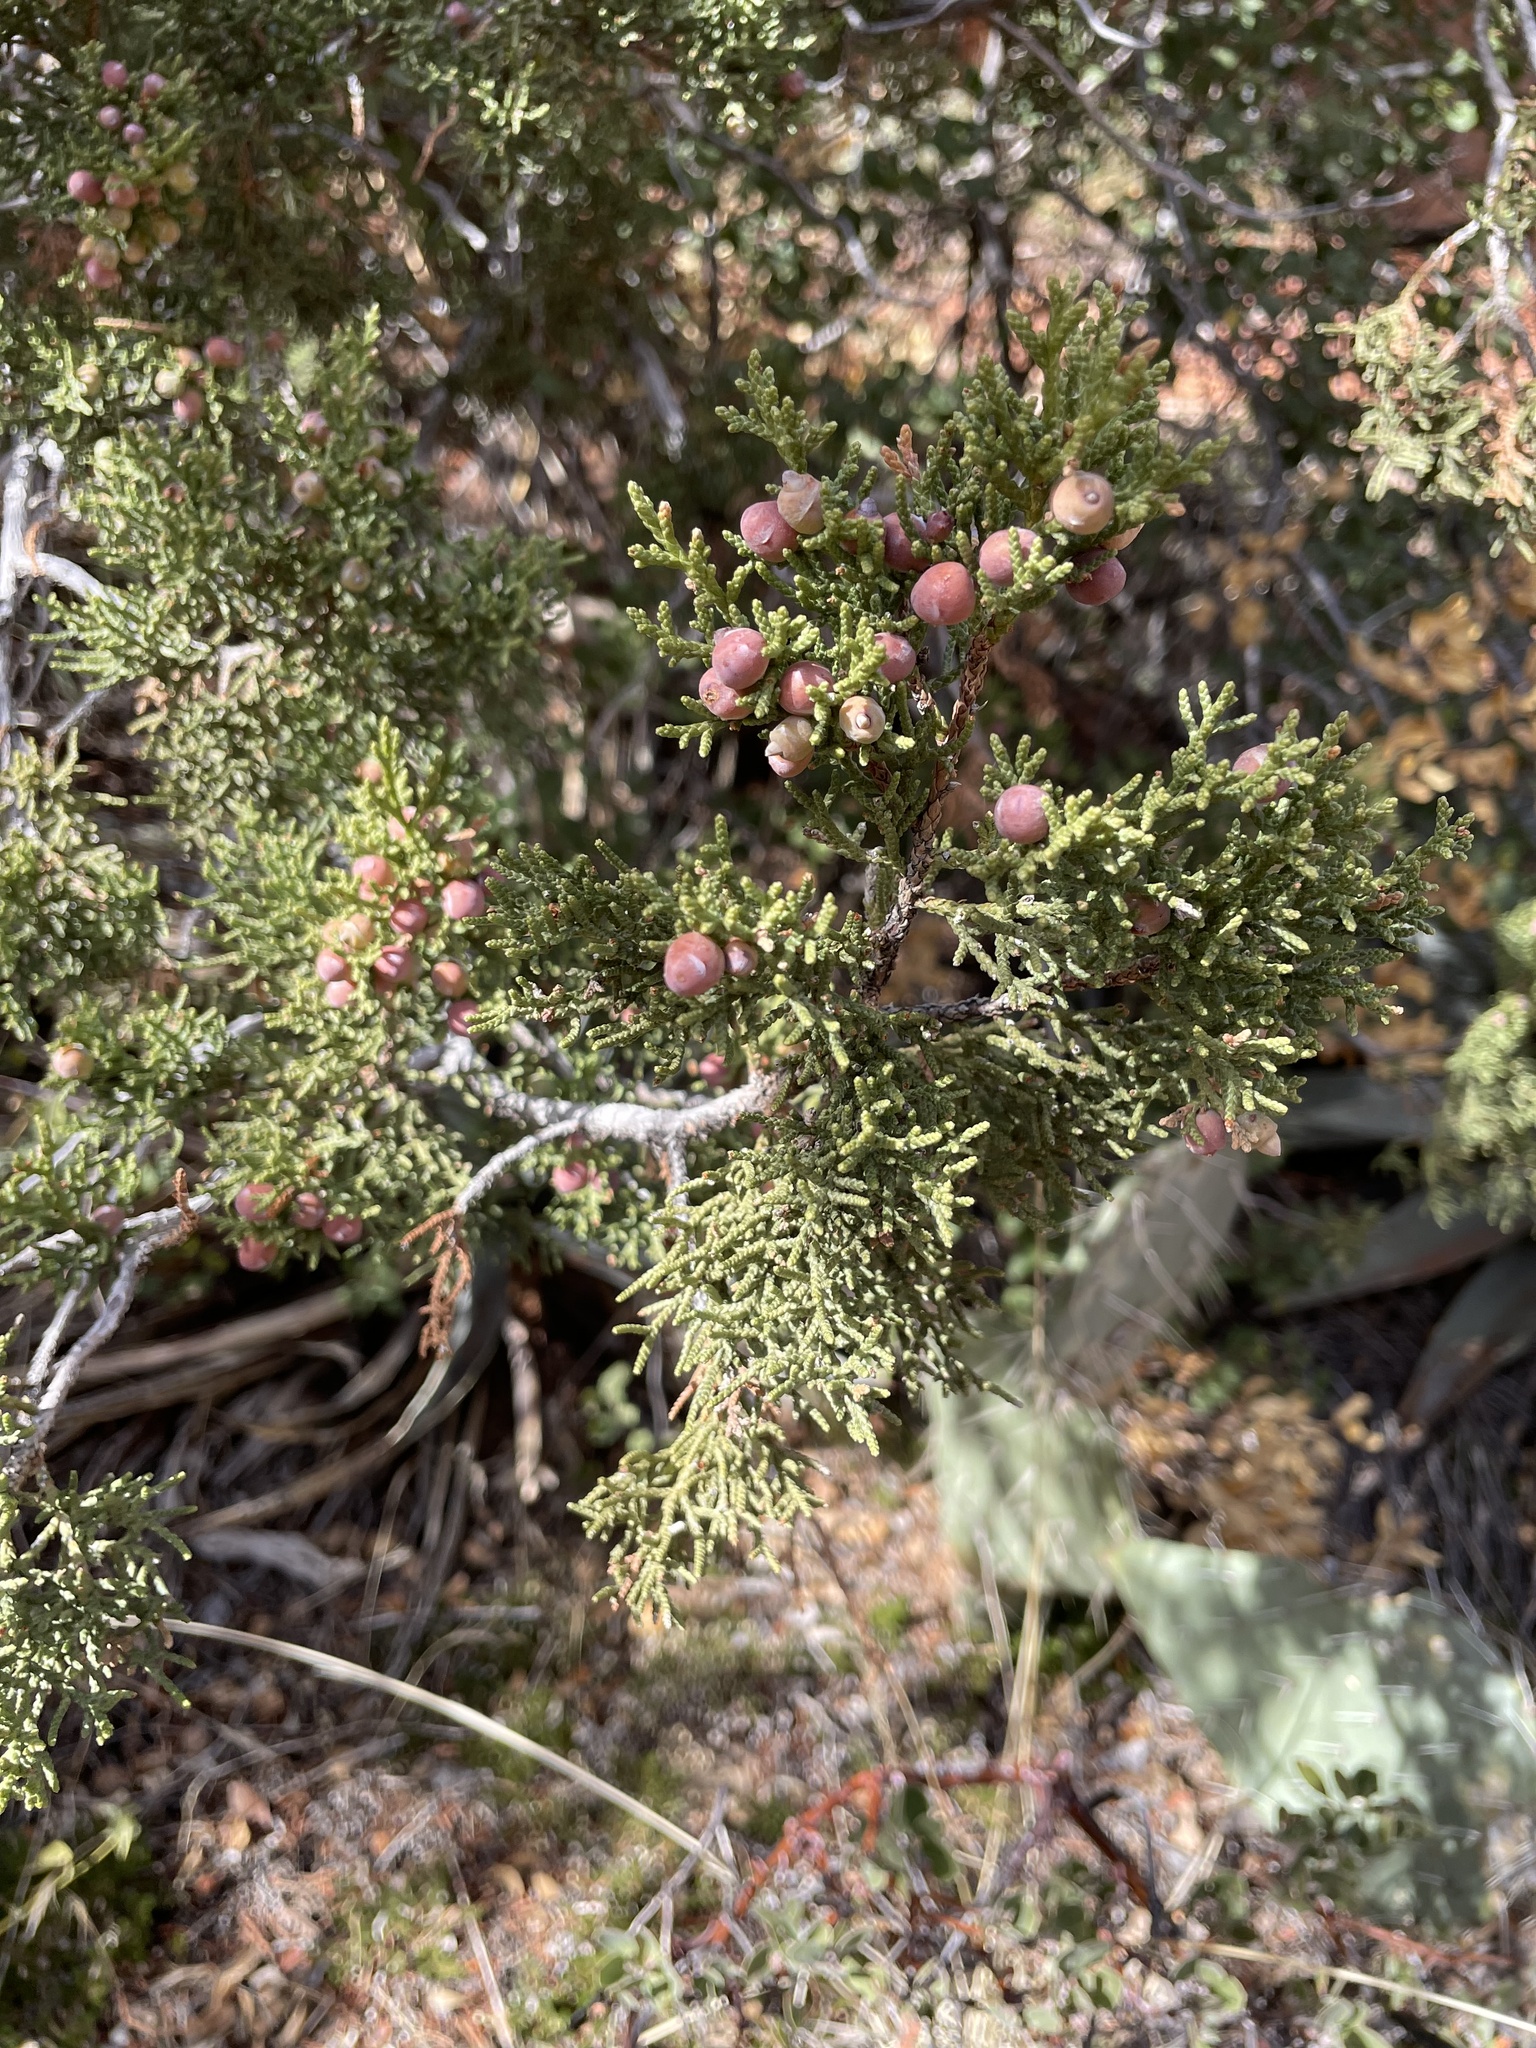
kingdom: Plantae
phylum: Tracheophyta
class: Pinopsida
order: Pinales
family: Cupressaceae
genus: Juniperus
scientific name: Juniperus arizonica
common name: Arizona juniper
